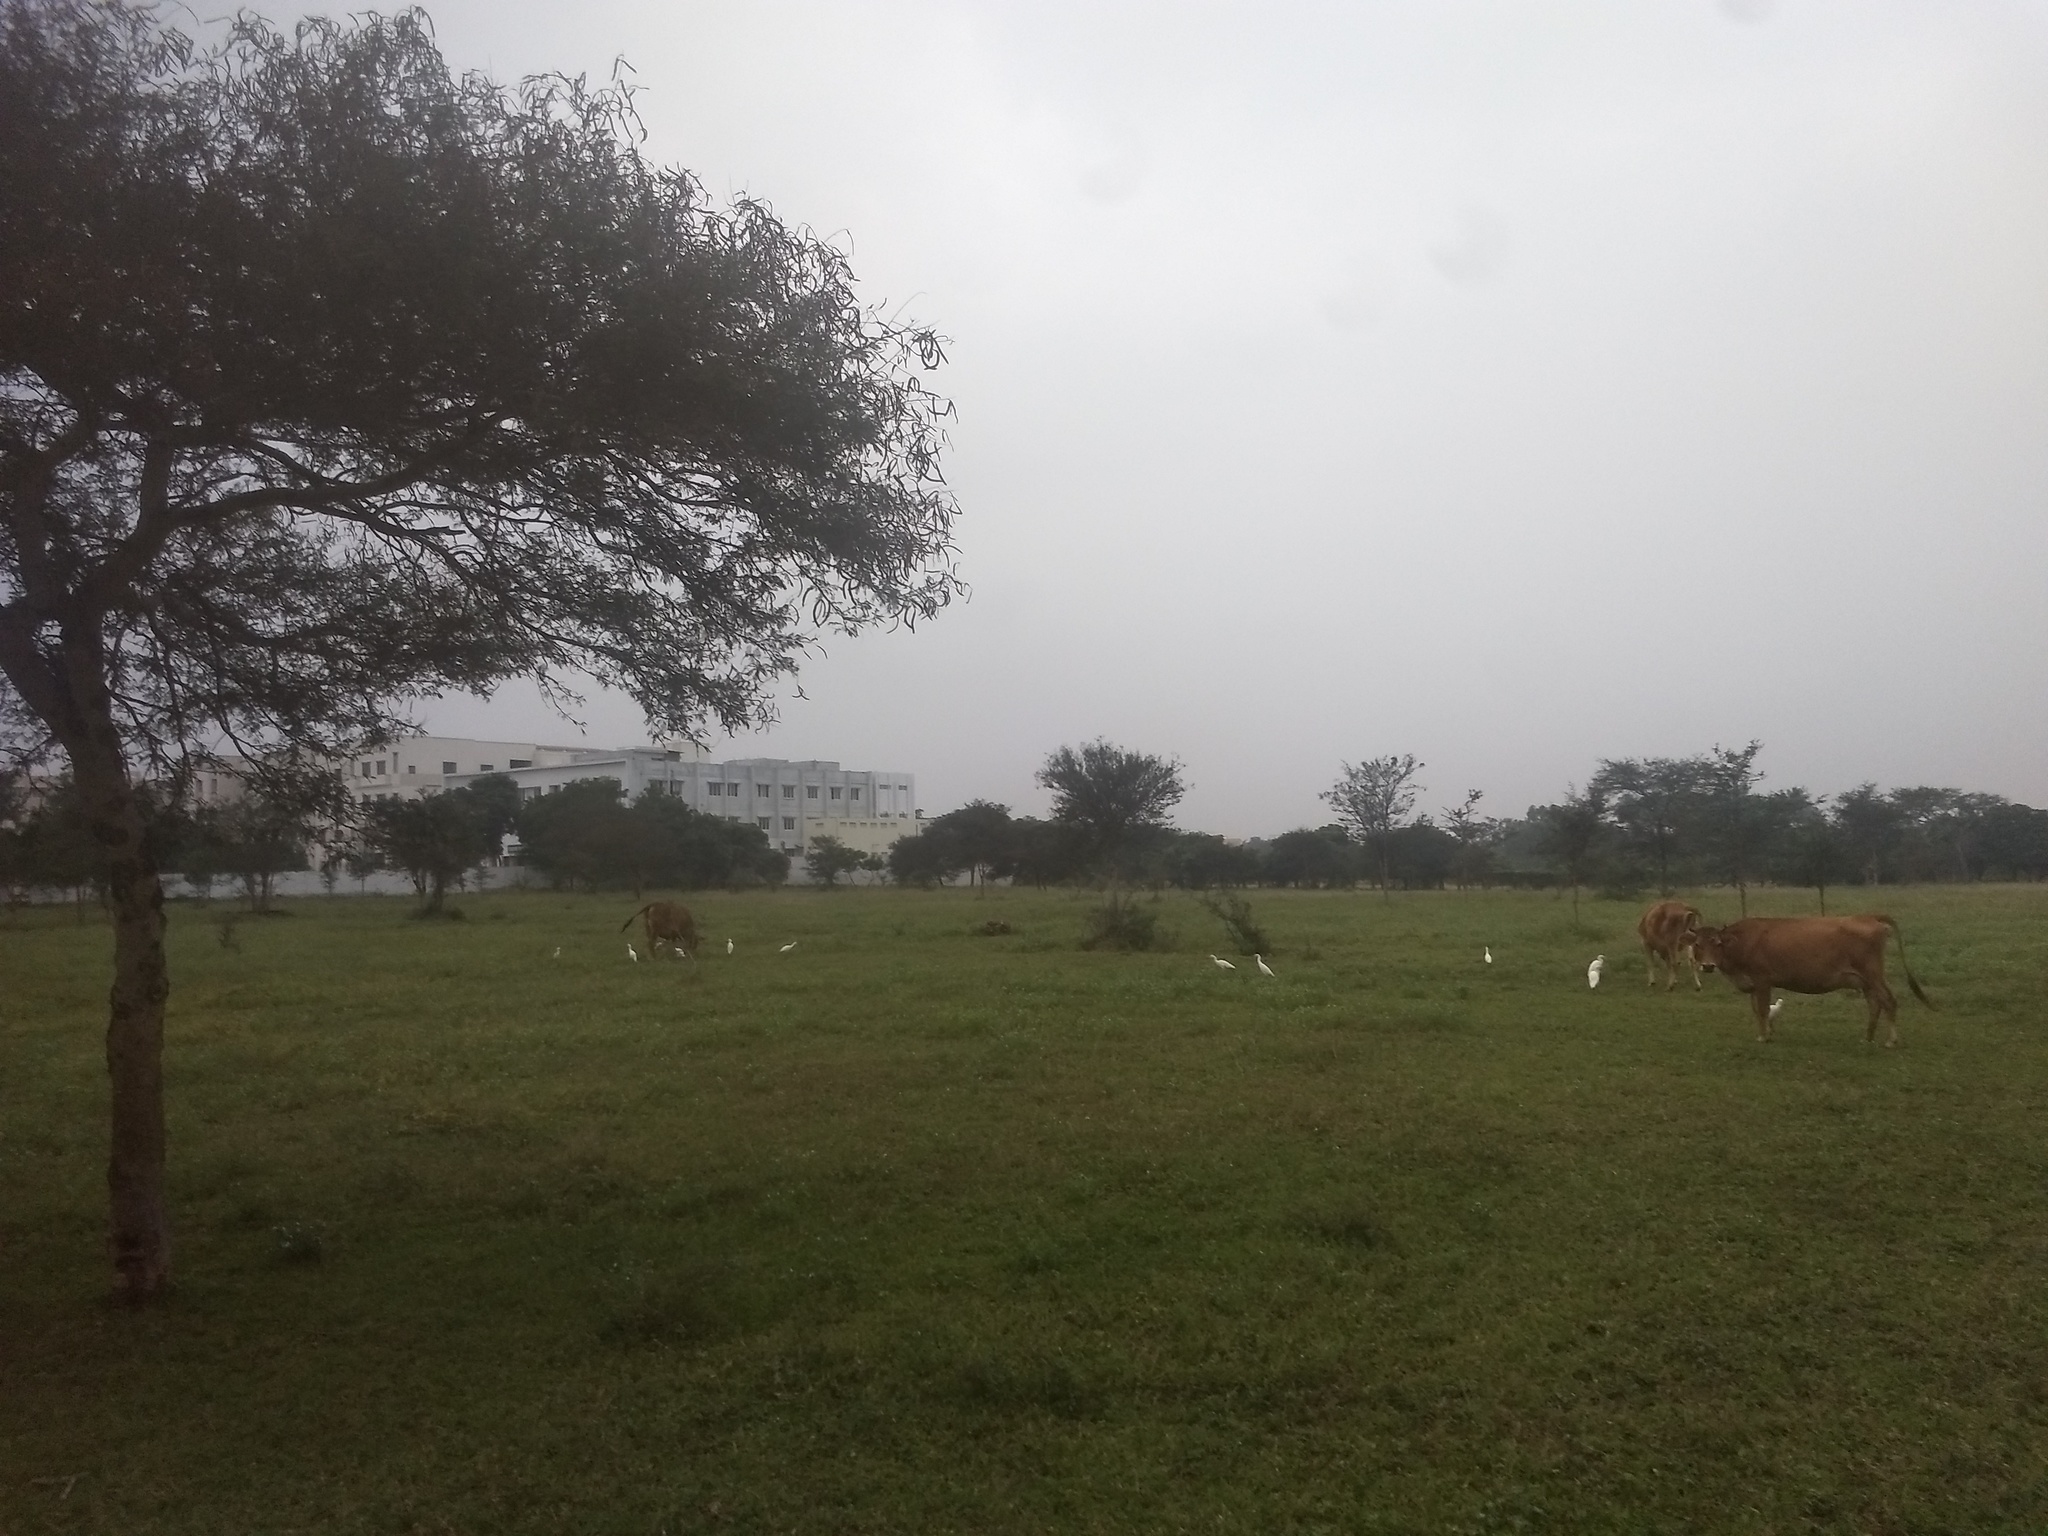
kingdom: Animalia
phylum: Chordata
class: Aves
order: Pelecaniformes
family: Ardeidae
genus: Bubulcus
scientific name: Bubulcus coromandus
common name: Eastern cattle egret
